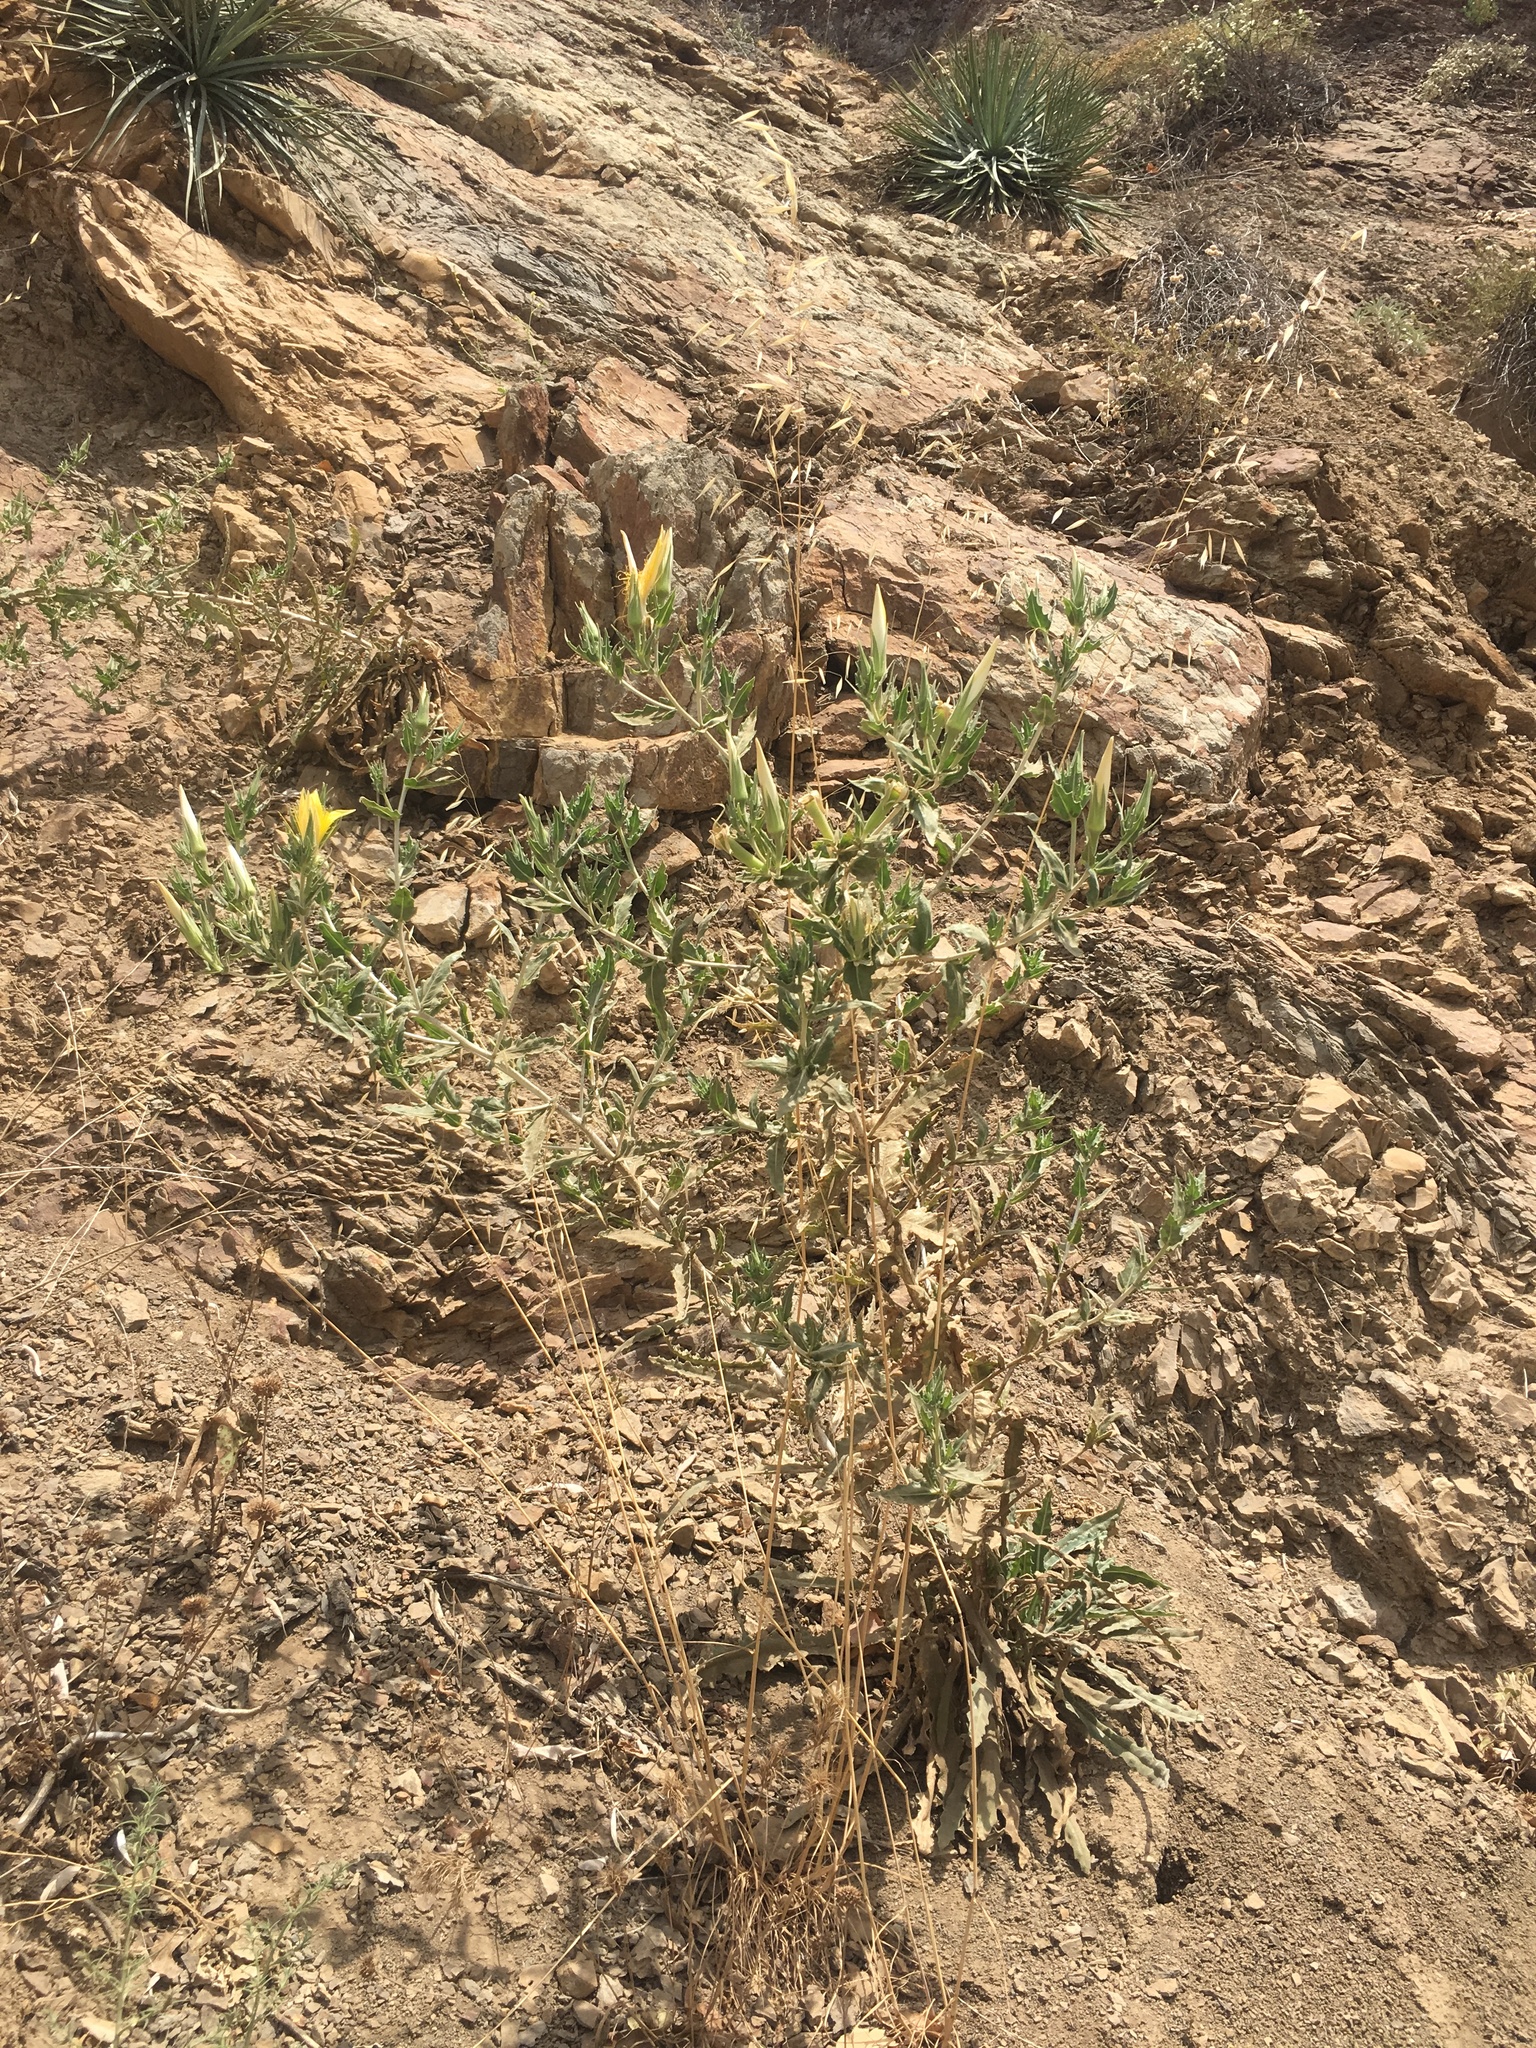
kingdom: Plantae
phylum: Tracheophyta
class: Magnoliopsida
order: Cornales
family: Loasaceae
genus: Mentzelia
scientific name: Mentzelia laevicaulis
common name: Smooth-stem blazingstar
